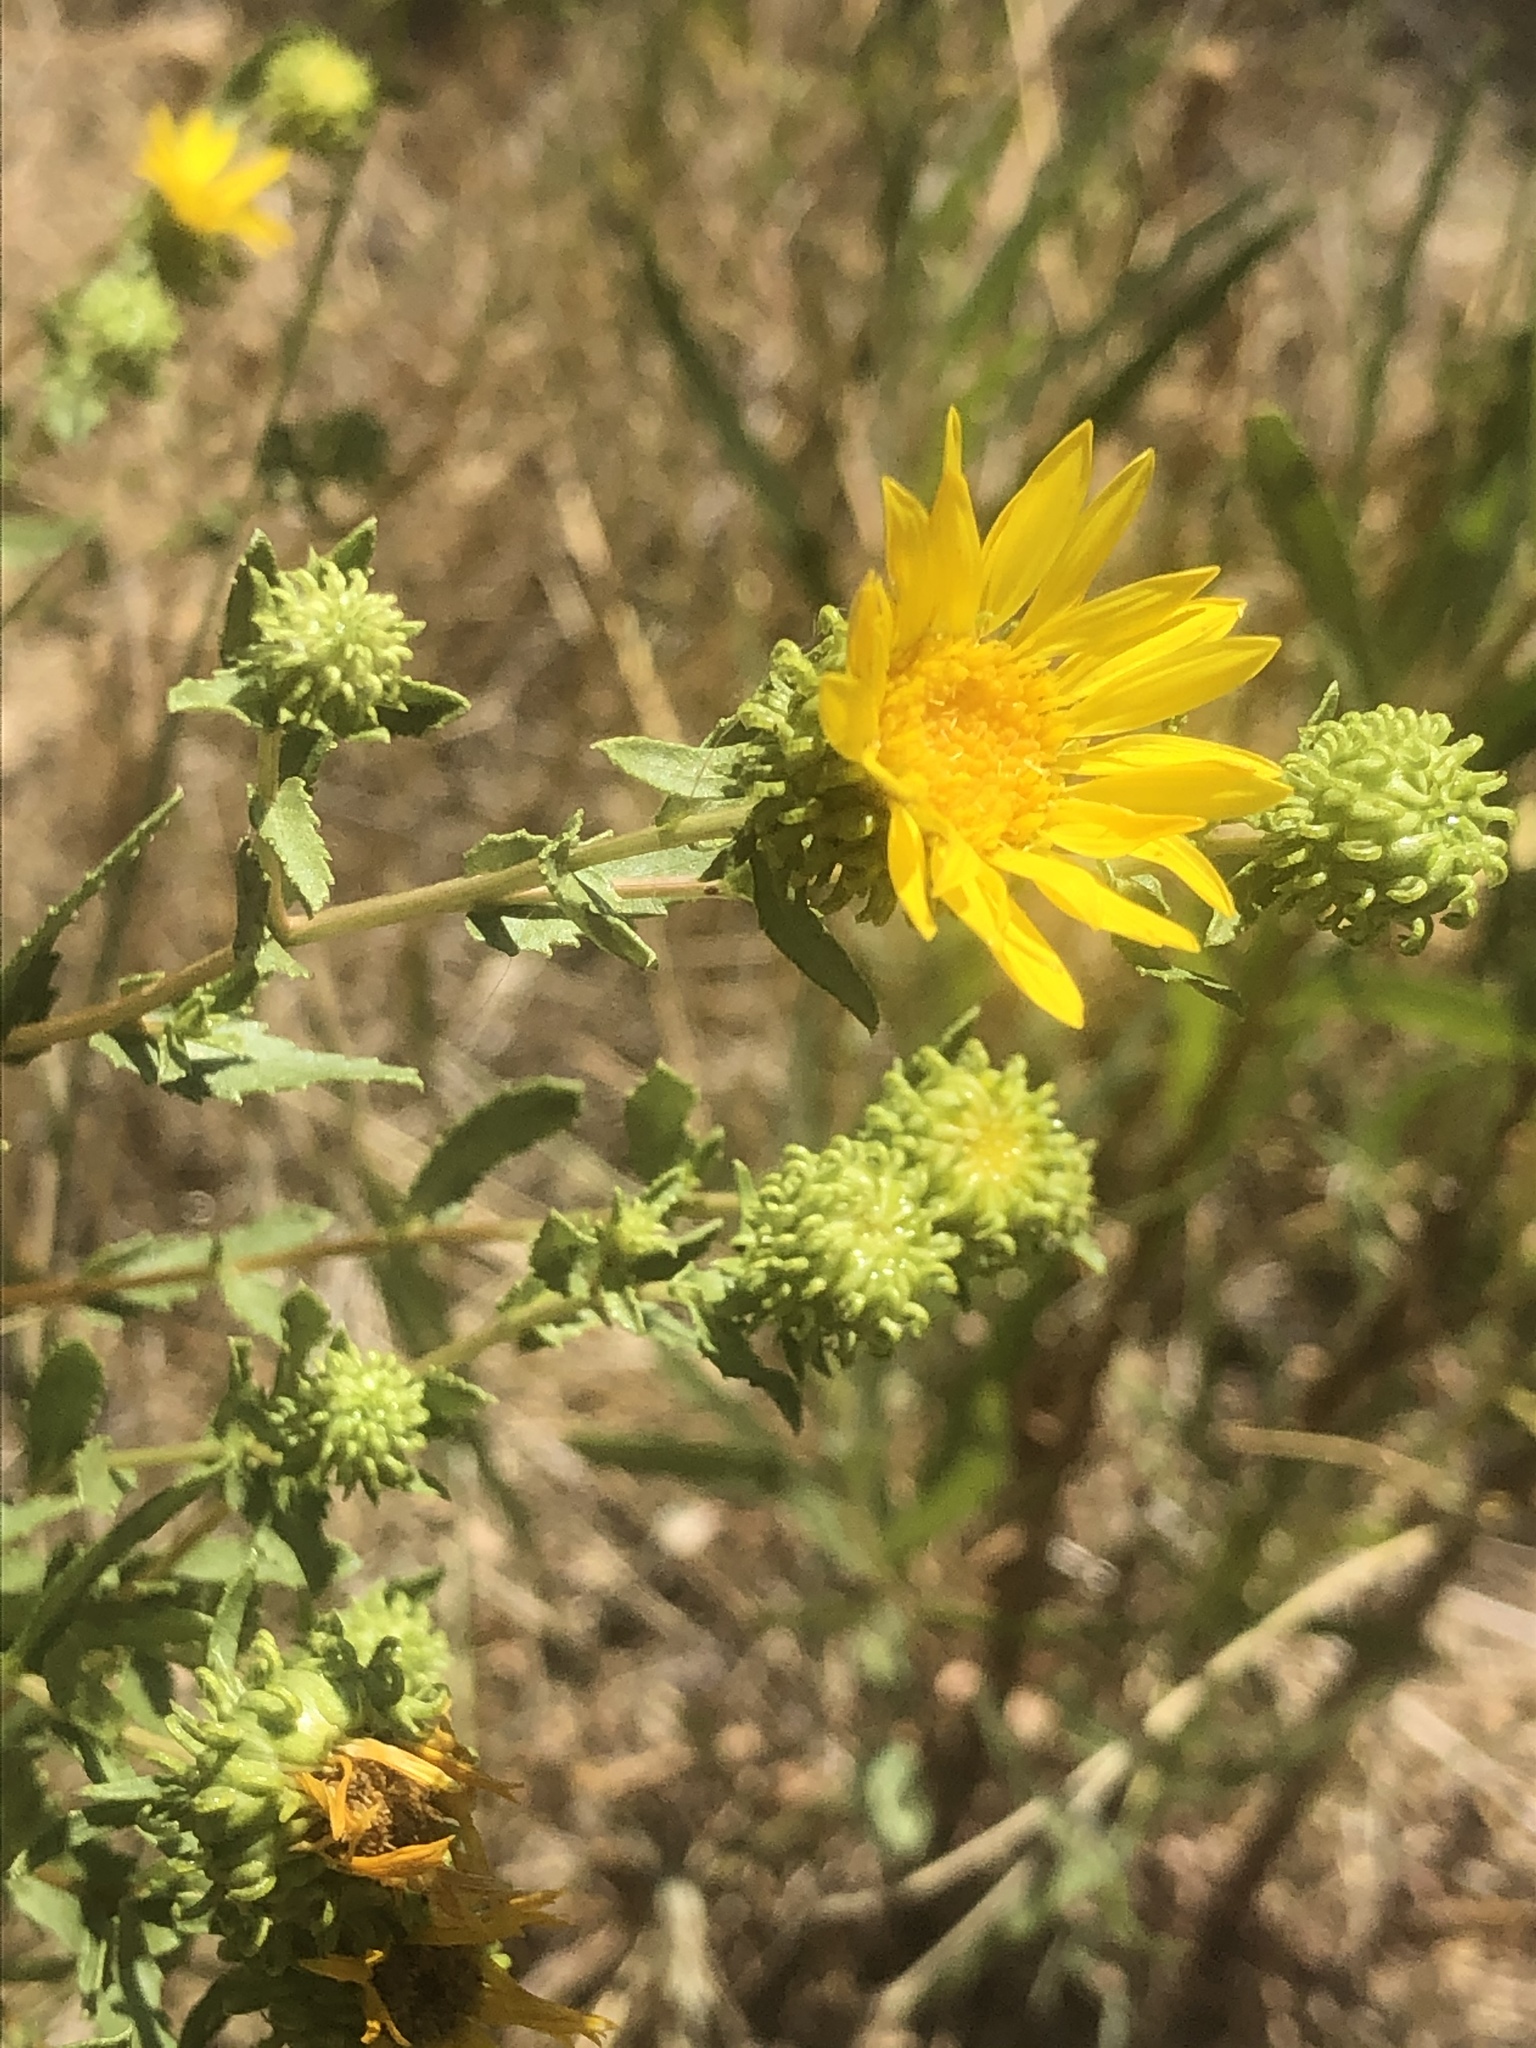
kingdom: Plantae
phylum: Tracheophyta
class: Magnoliopsida
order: Asterales
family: Asteraceae
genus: Grindelia
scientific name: Grindelia squarrosa
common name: Curly-cup gumweed
